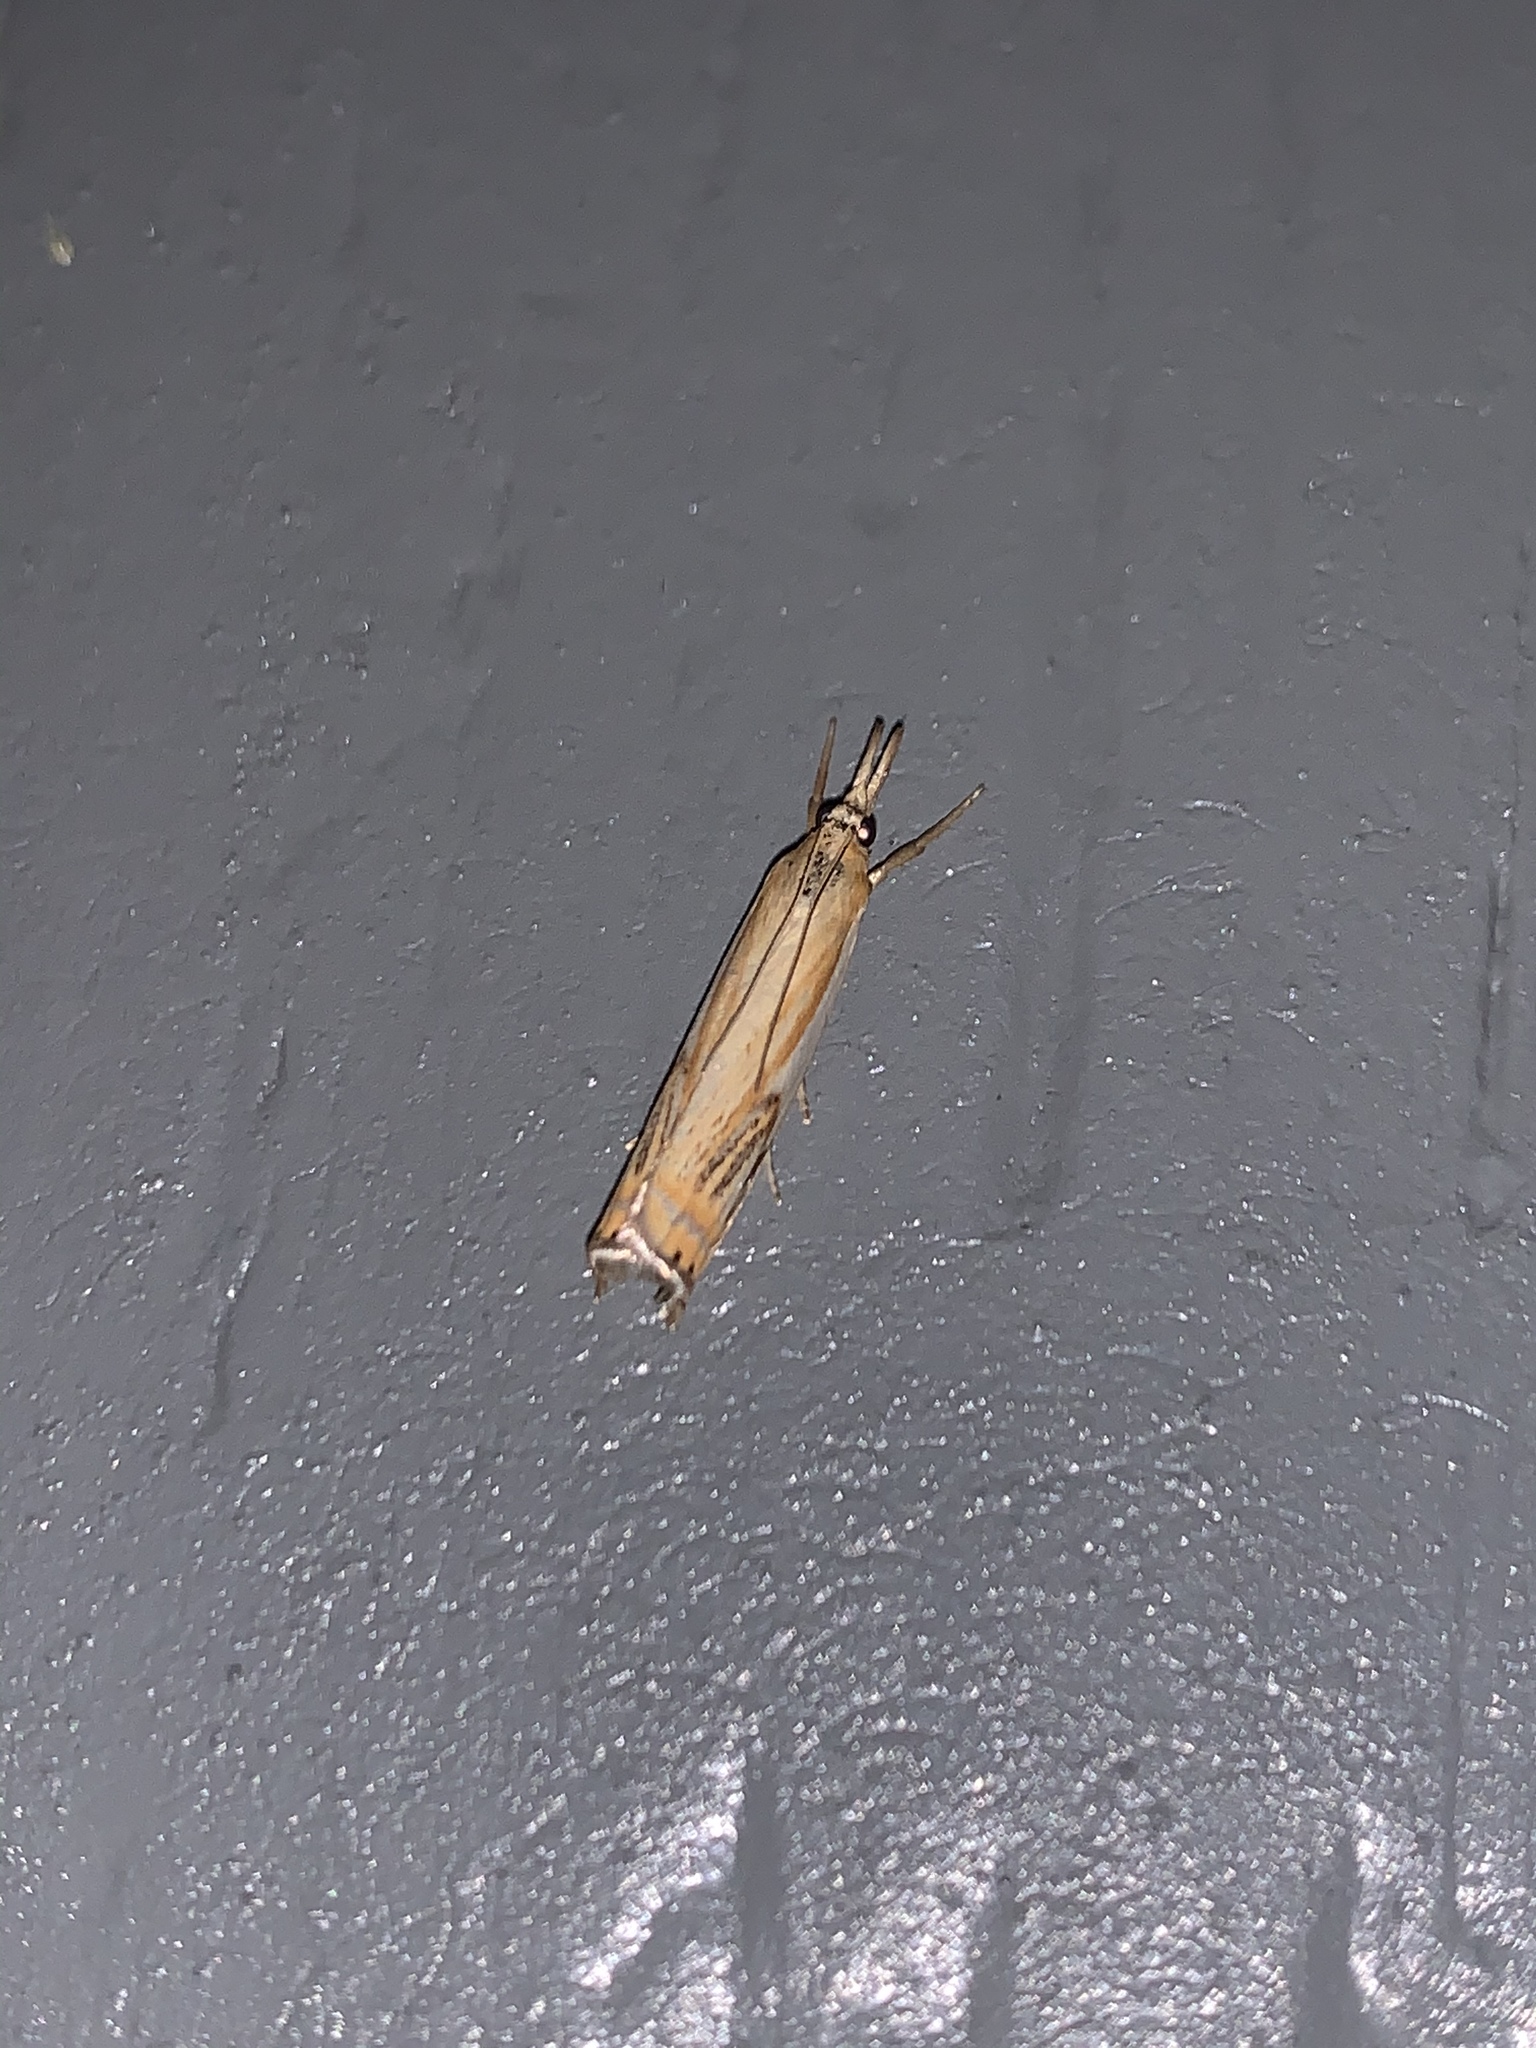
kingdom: Animalia
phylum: Arthropoda
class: Insecta
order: Lepidoptera
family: Crambidae
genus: Crambus
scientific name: Crambus agitatellus
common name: Double-banded grass-veneer
